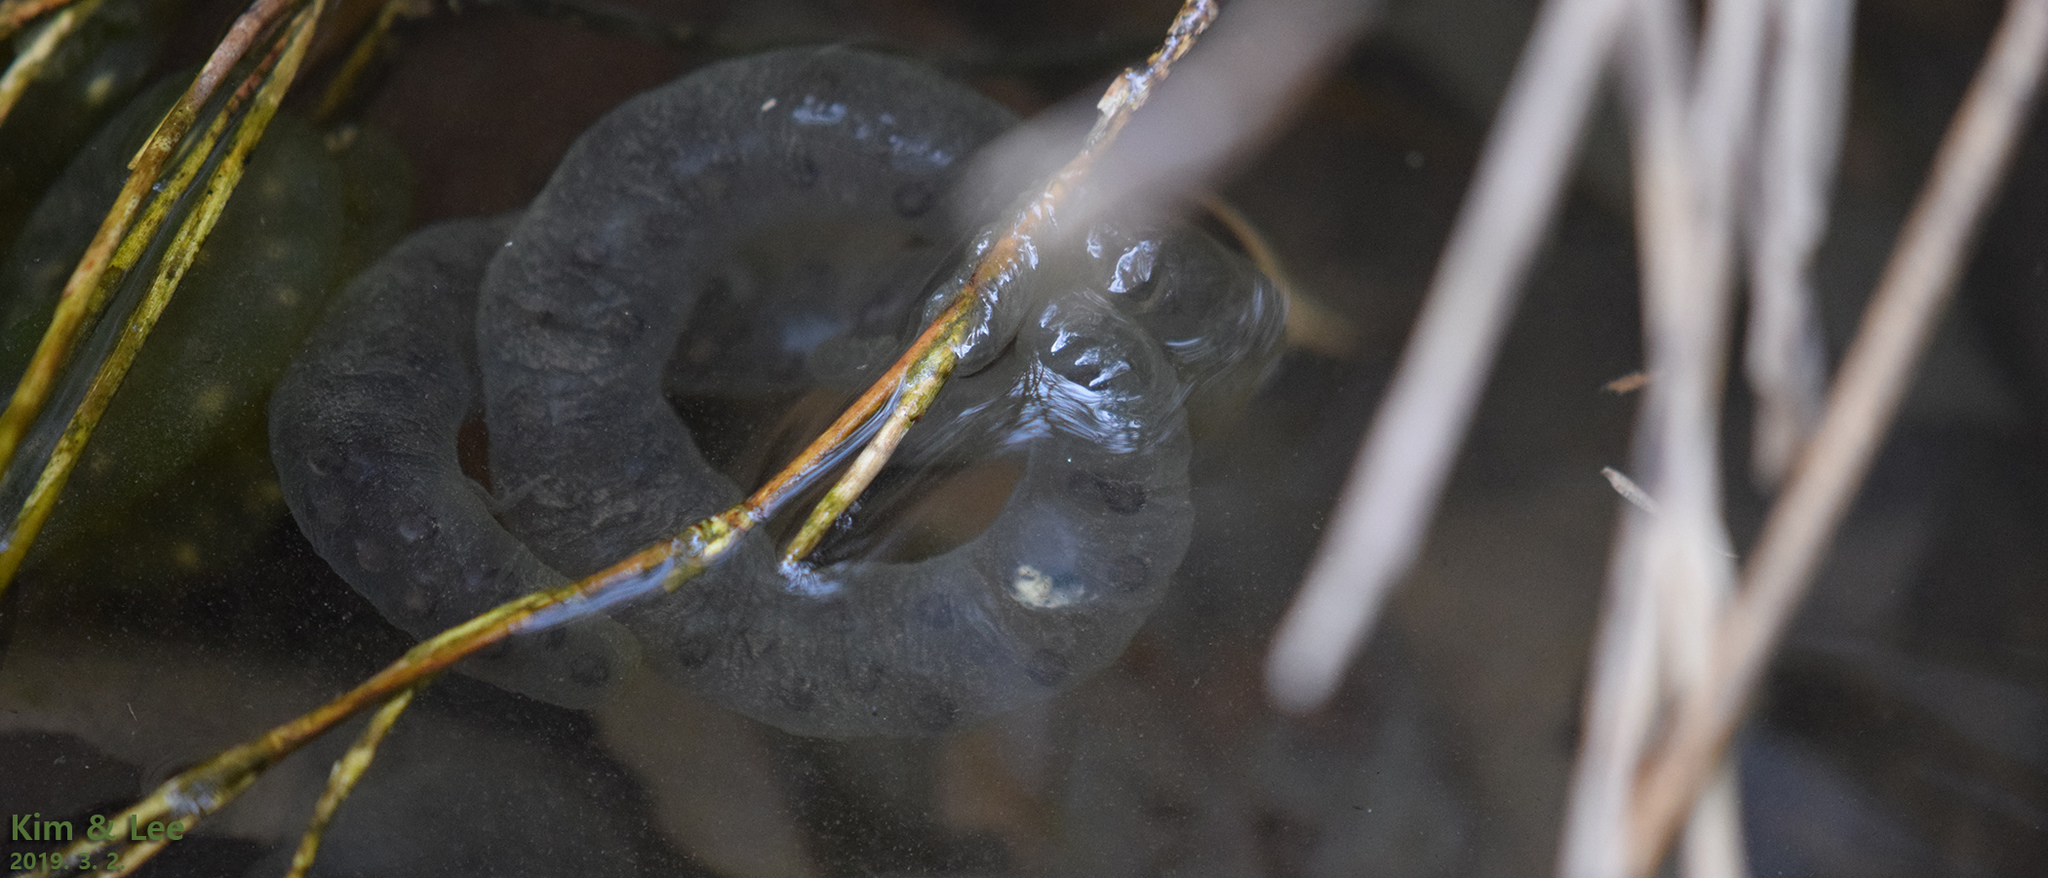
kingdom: Animalia
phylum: Chordata
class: Amphibia
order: Caudata
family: Hynobiidae
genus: Hynobius
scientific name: Hynobius leechii
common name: Gensan salamander
